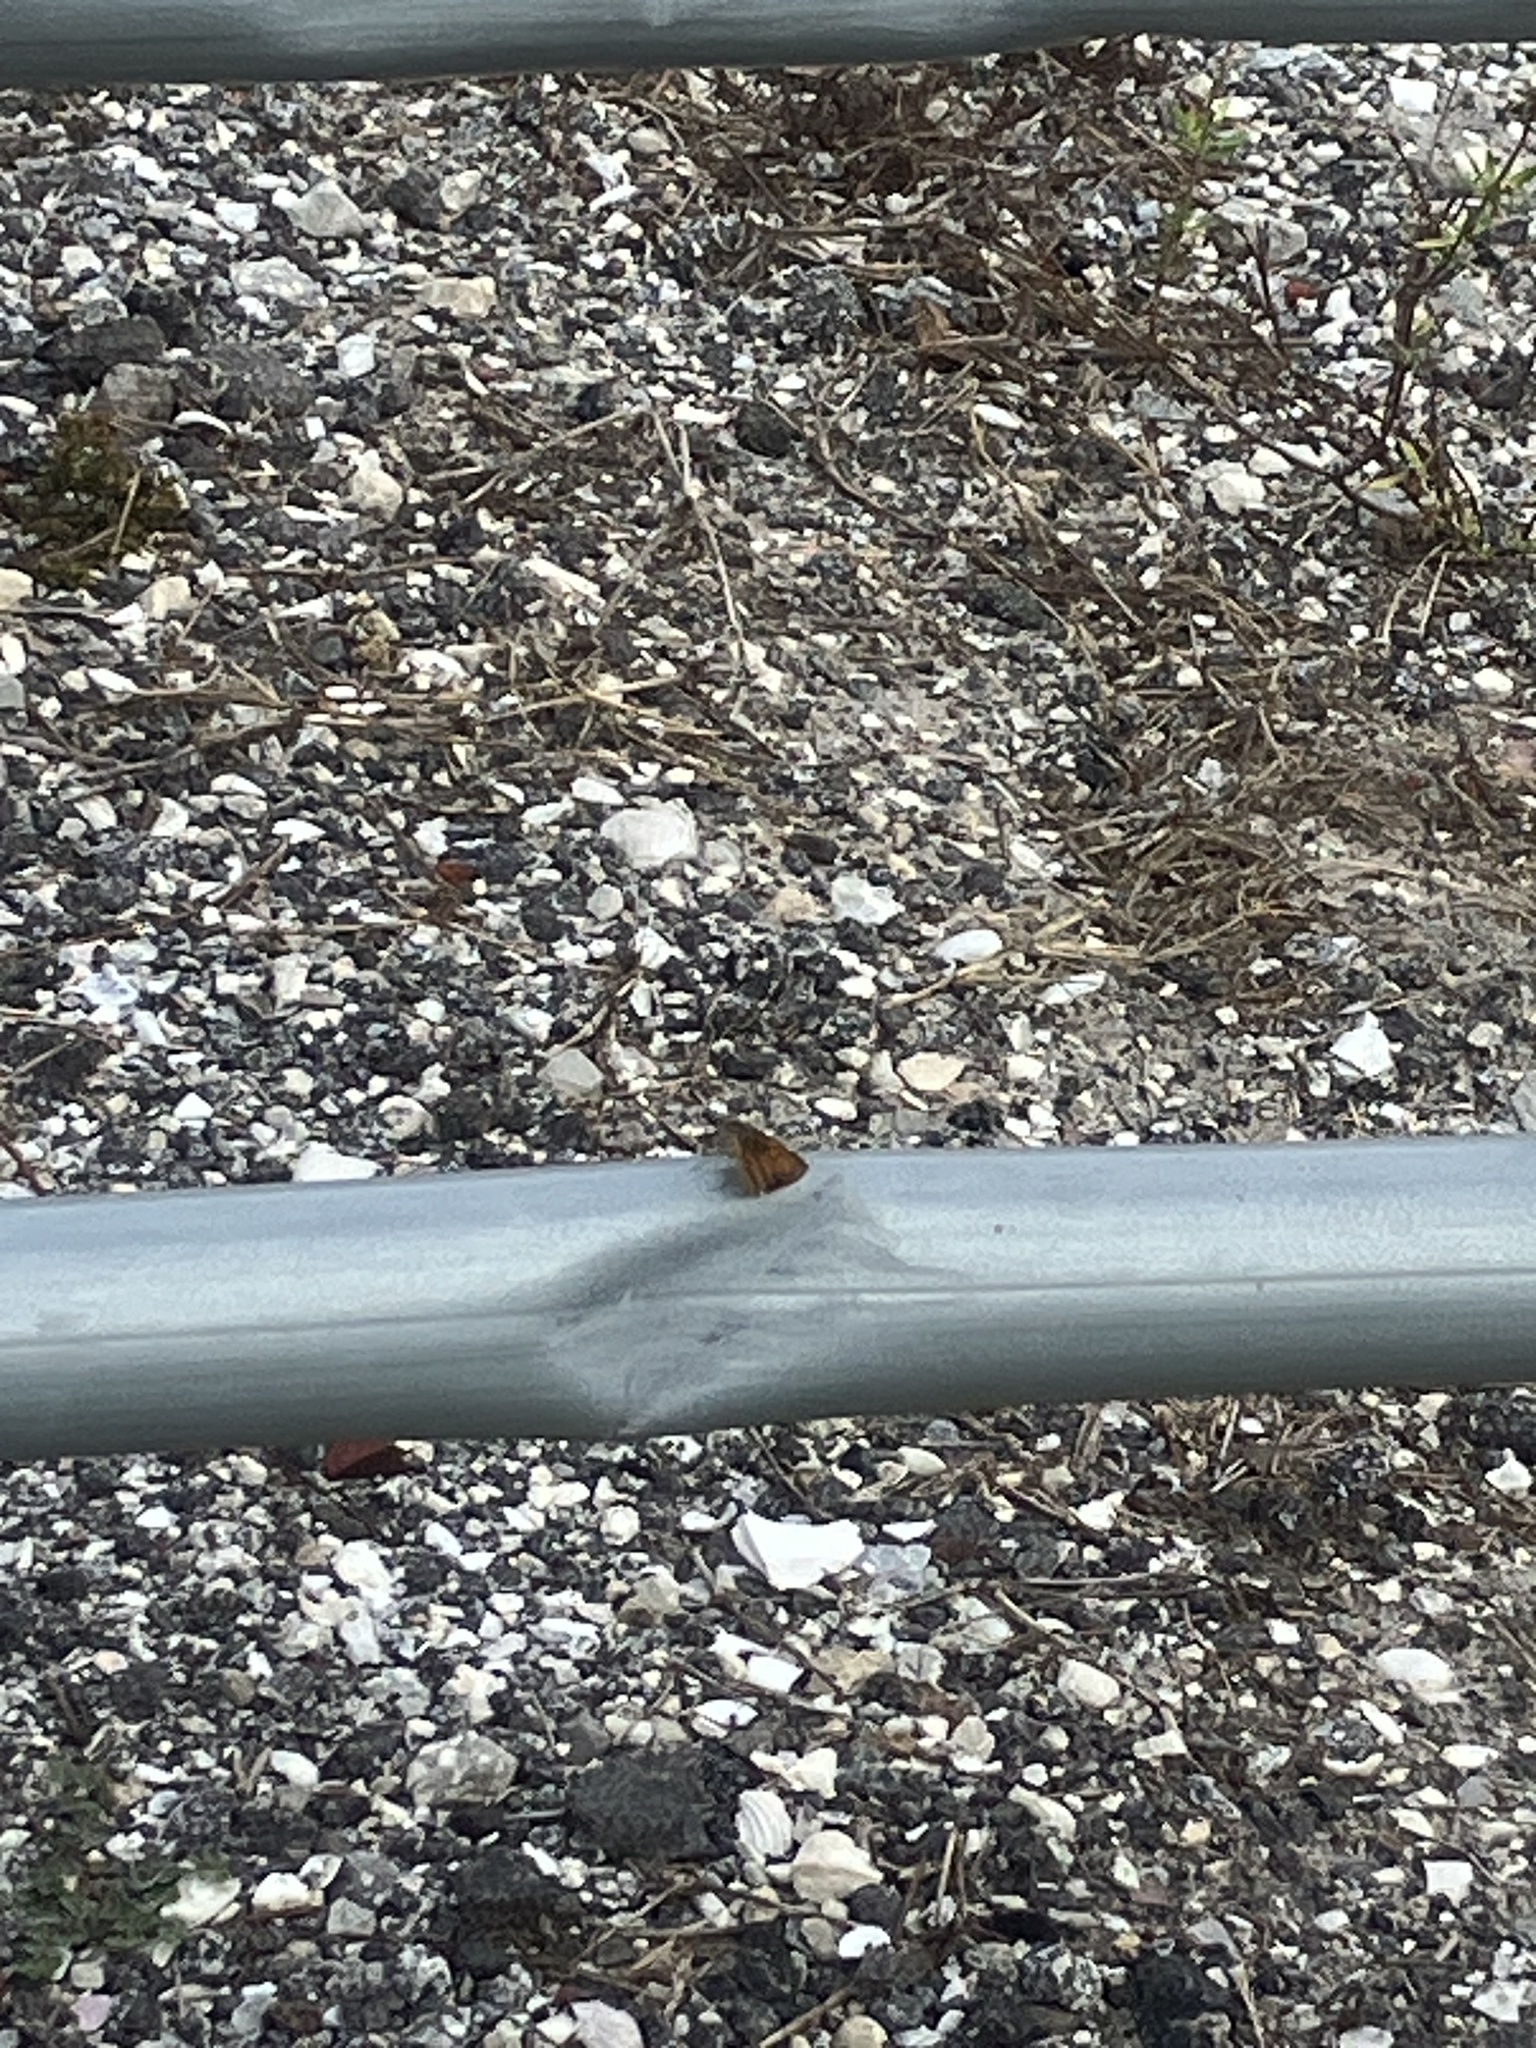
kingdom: Animalia
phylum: Arthropoda
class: Insecta
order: Lepidoptera
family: Hesperiidae
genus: Atrytone
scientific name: Atrytone delaware
